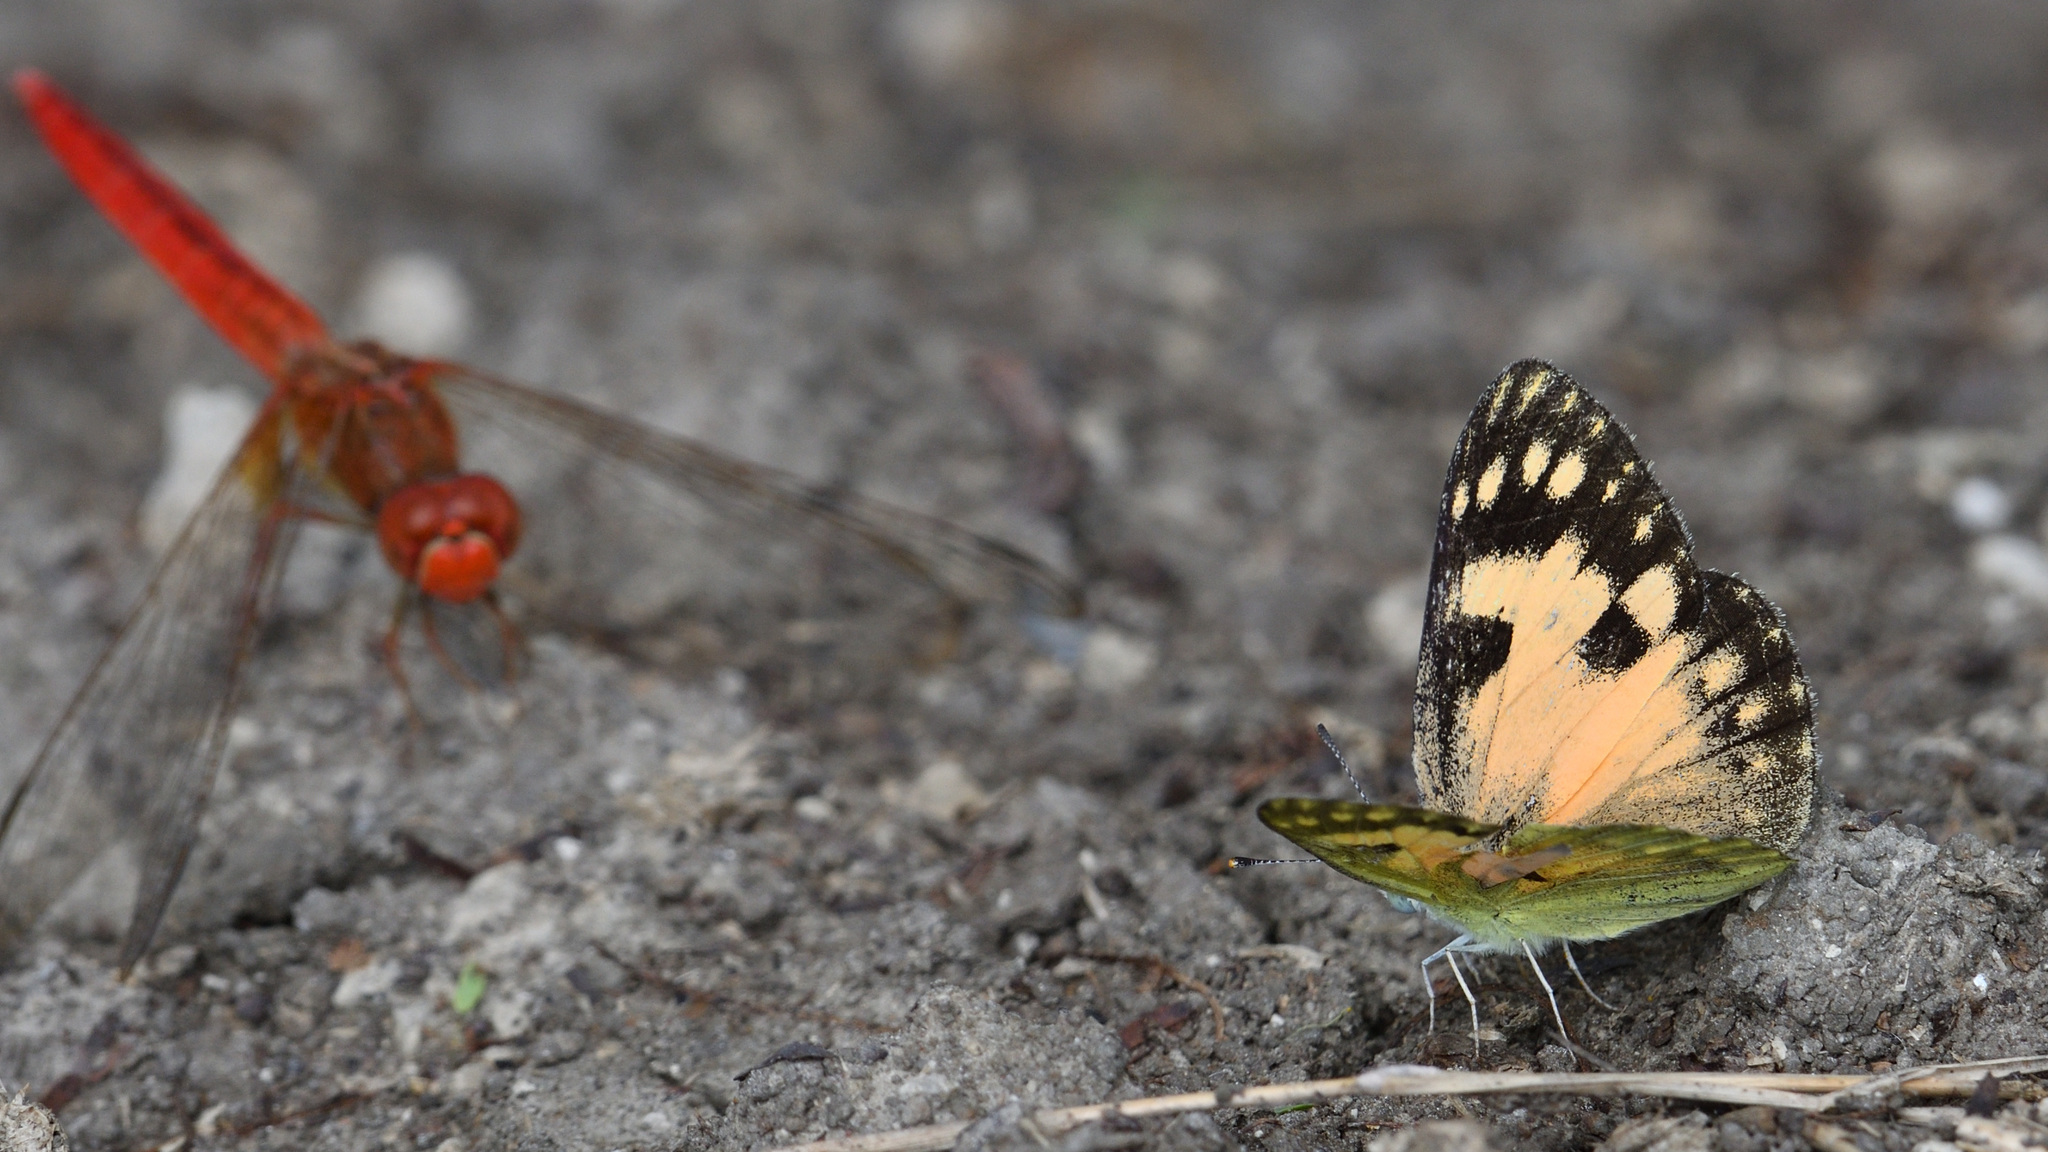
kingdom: Animalia
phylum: Arthropoda
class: Insecta
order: Lepidoptera
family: Pieridae
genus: Colotis
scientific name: Colotis amata
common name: Small salmon arab
